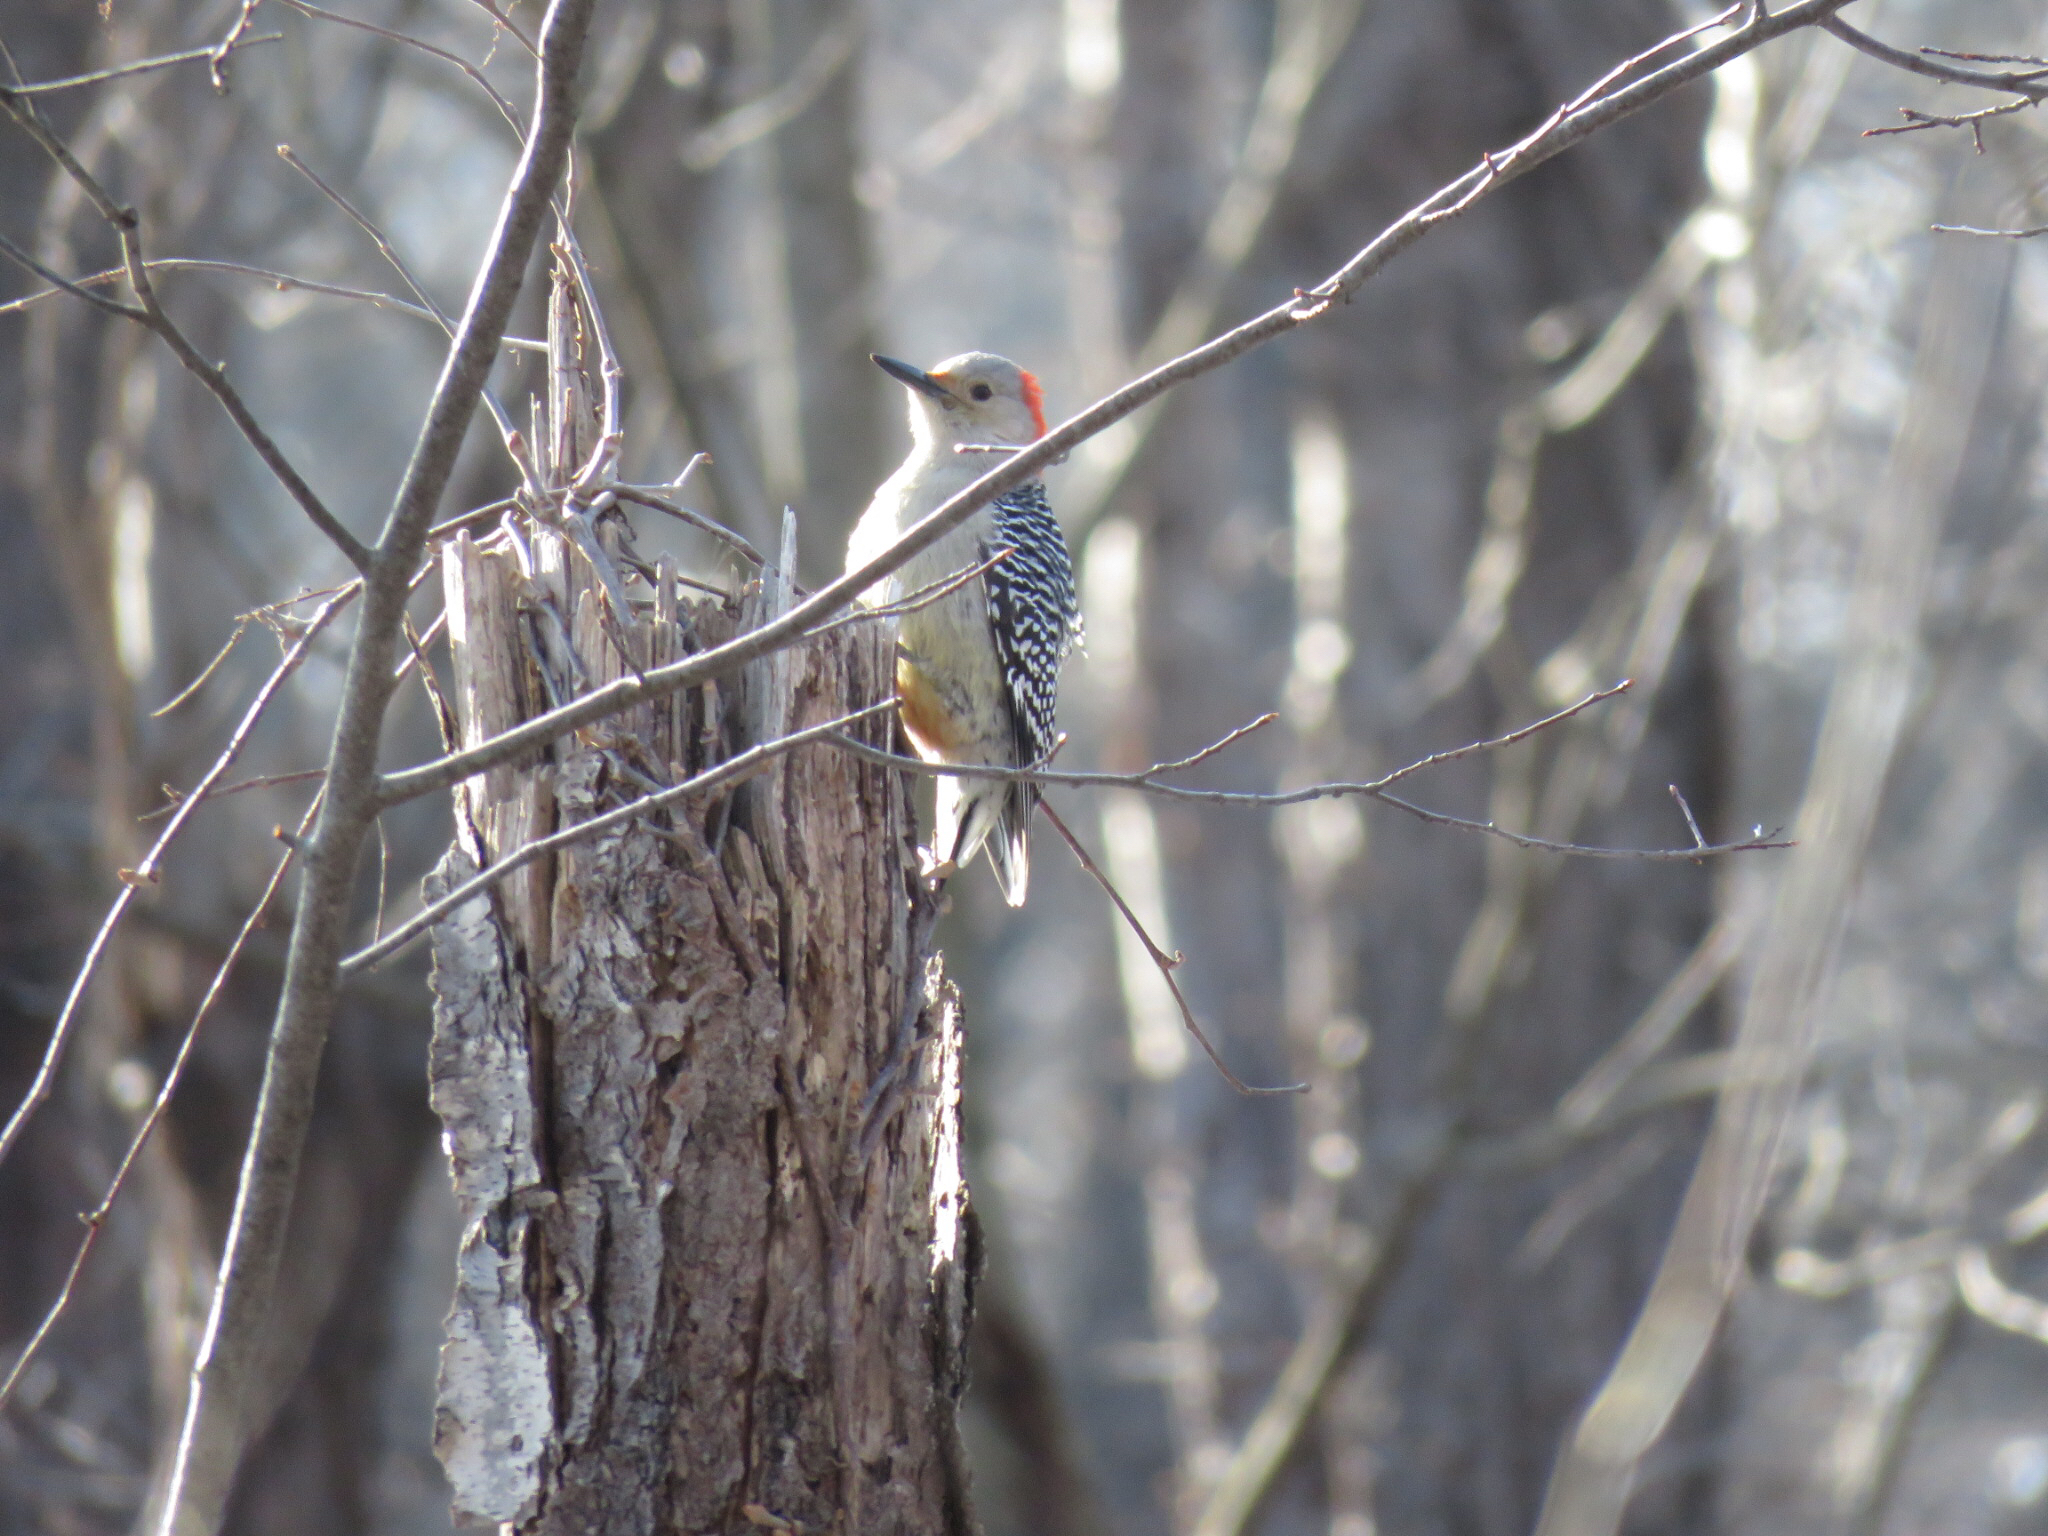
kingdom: Animalia
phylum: Chordata
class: Aves
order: Piciformes
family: Picidae
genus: Melanerpes
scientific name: Melanerpes carolinus
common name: Red-bellied woodpecker
